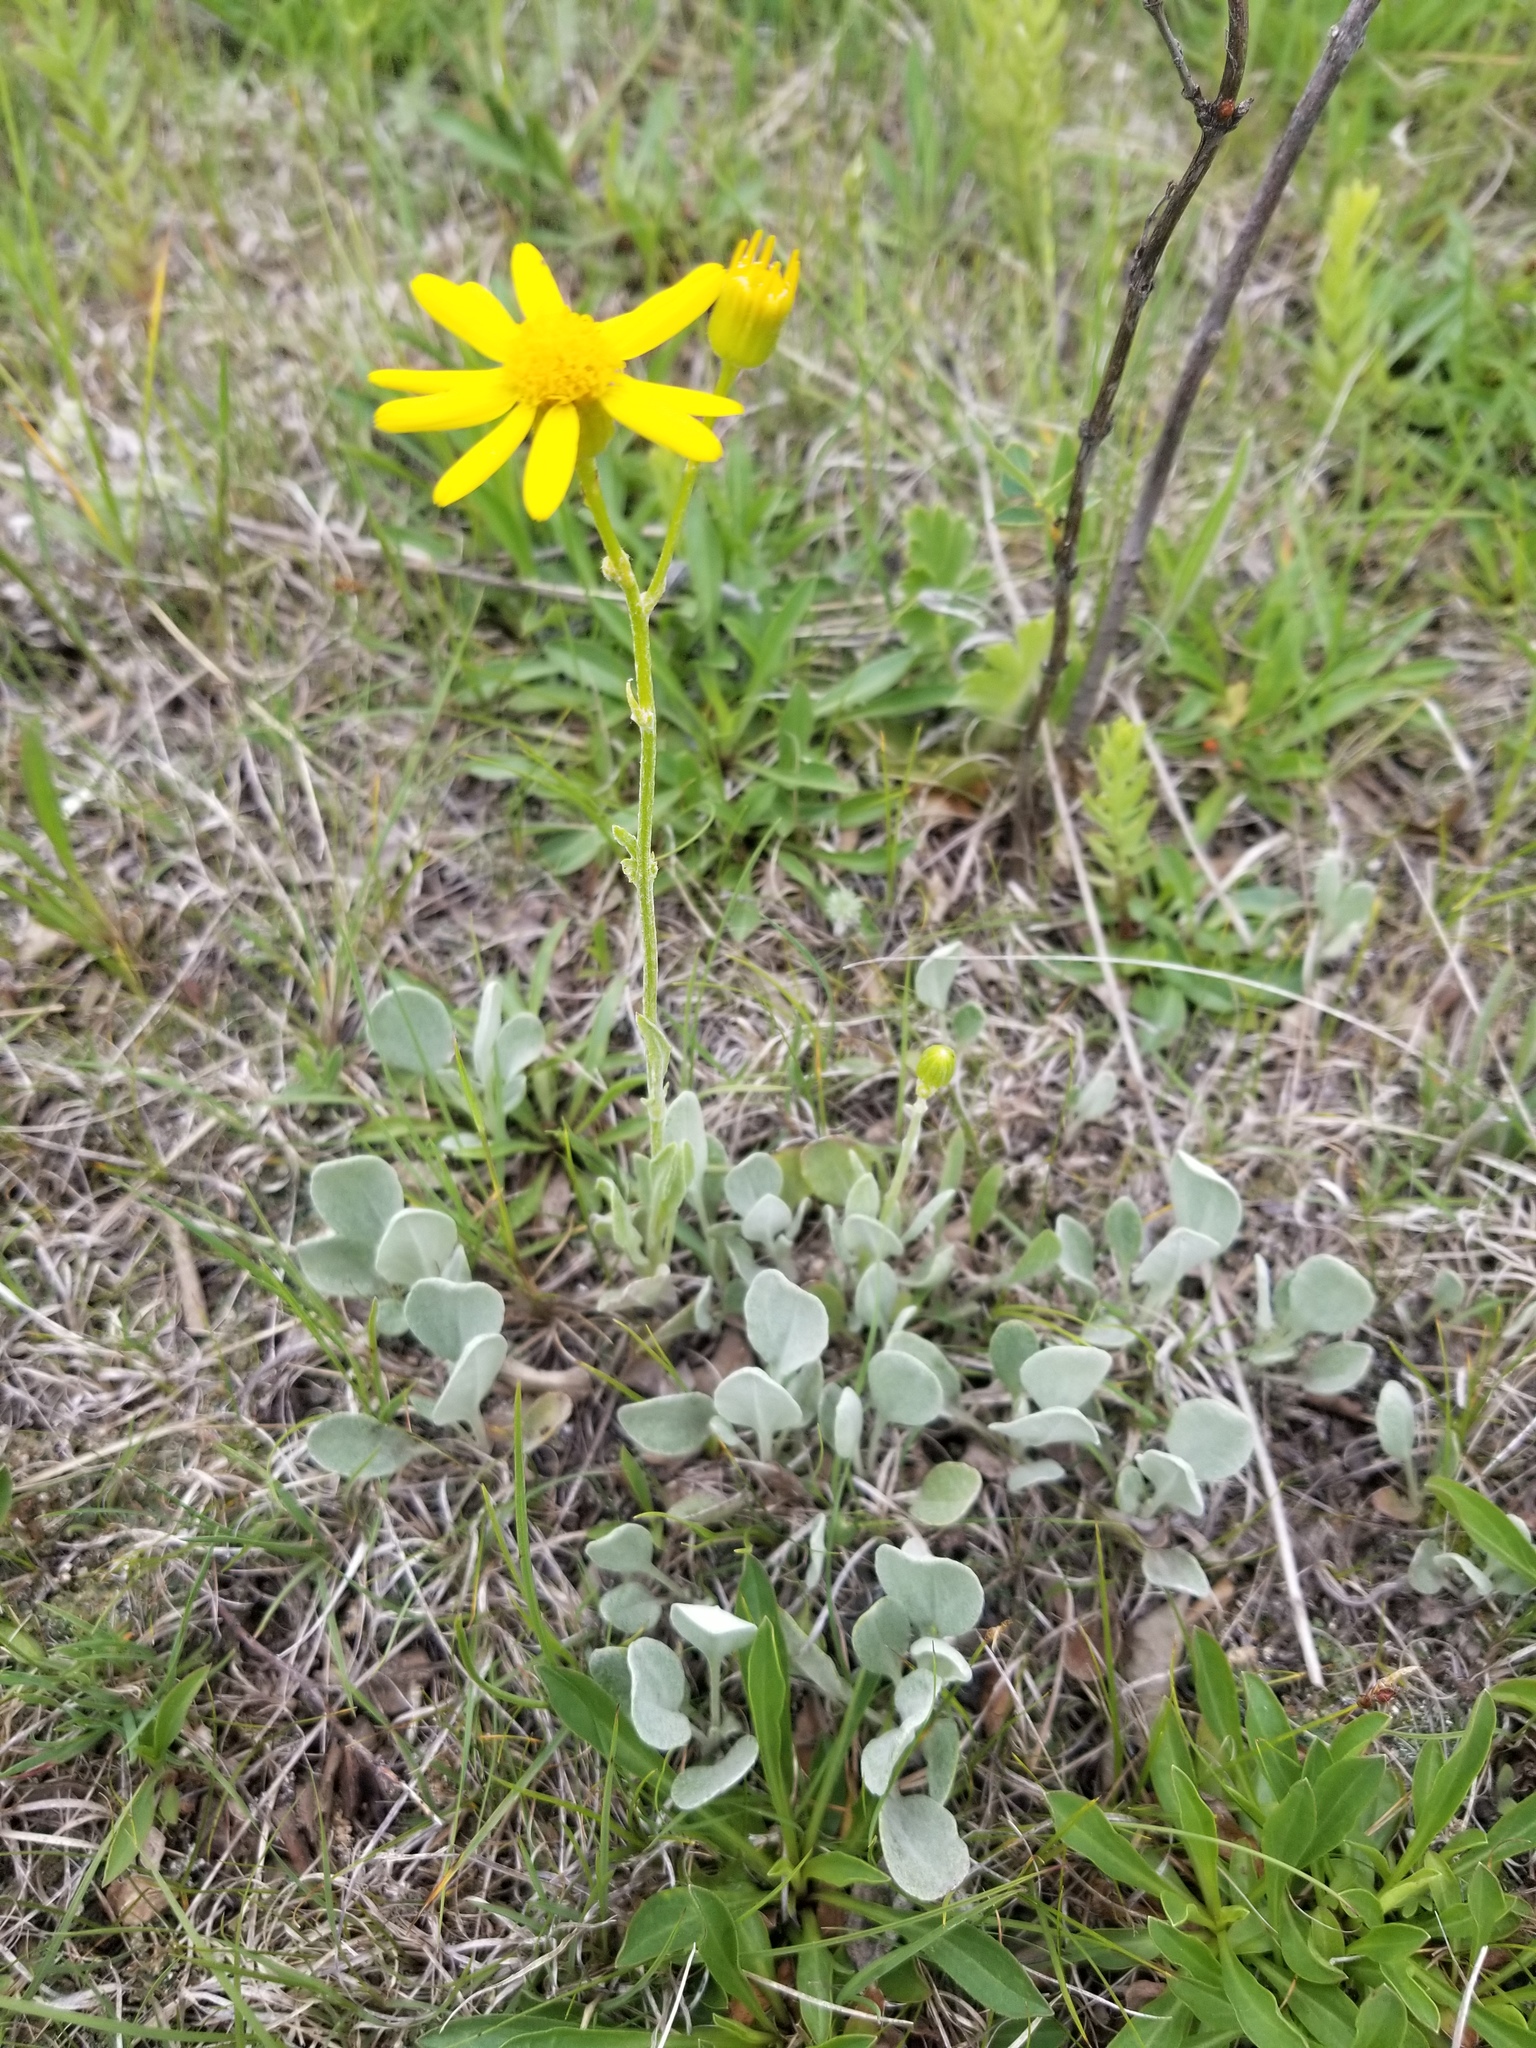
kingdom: Plantae
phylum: Tracheophyta
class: Magnoliopsida
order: Asterales
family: Asteraceae
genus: Packera
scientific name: Packera cana
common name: Woolly groundsel
